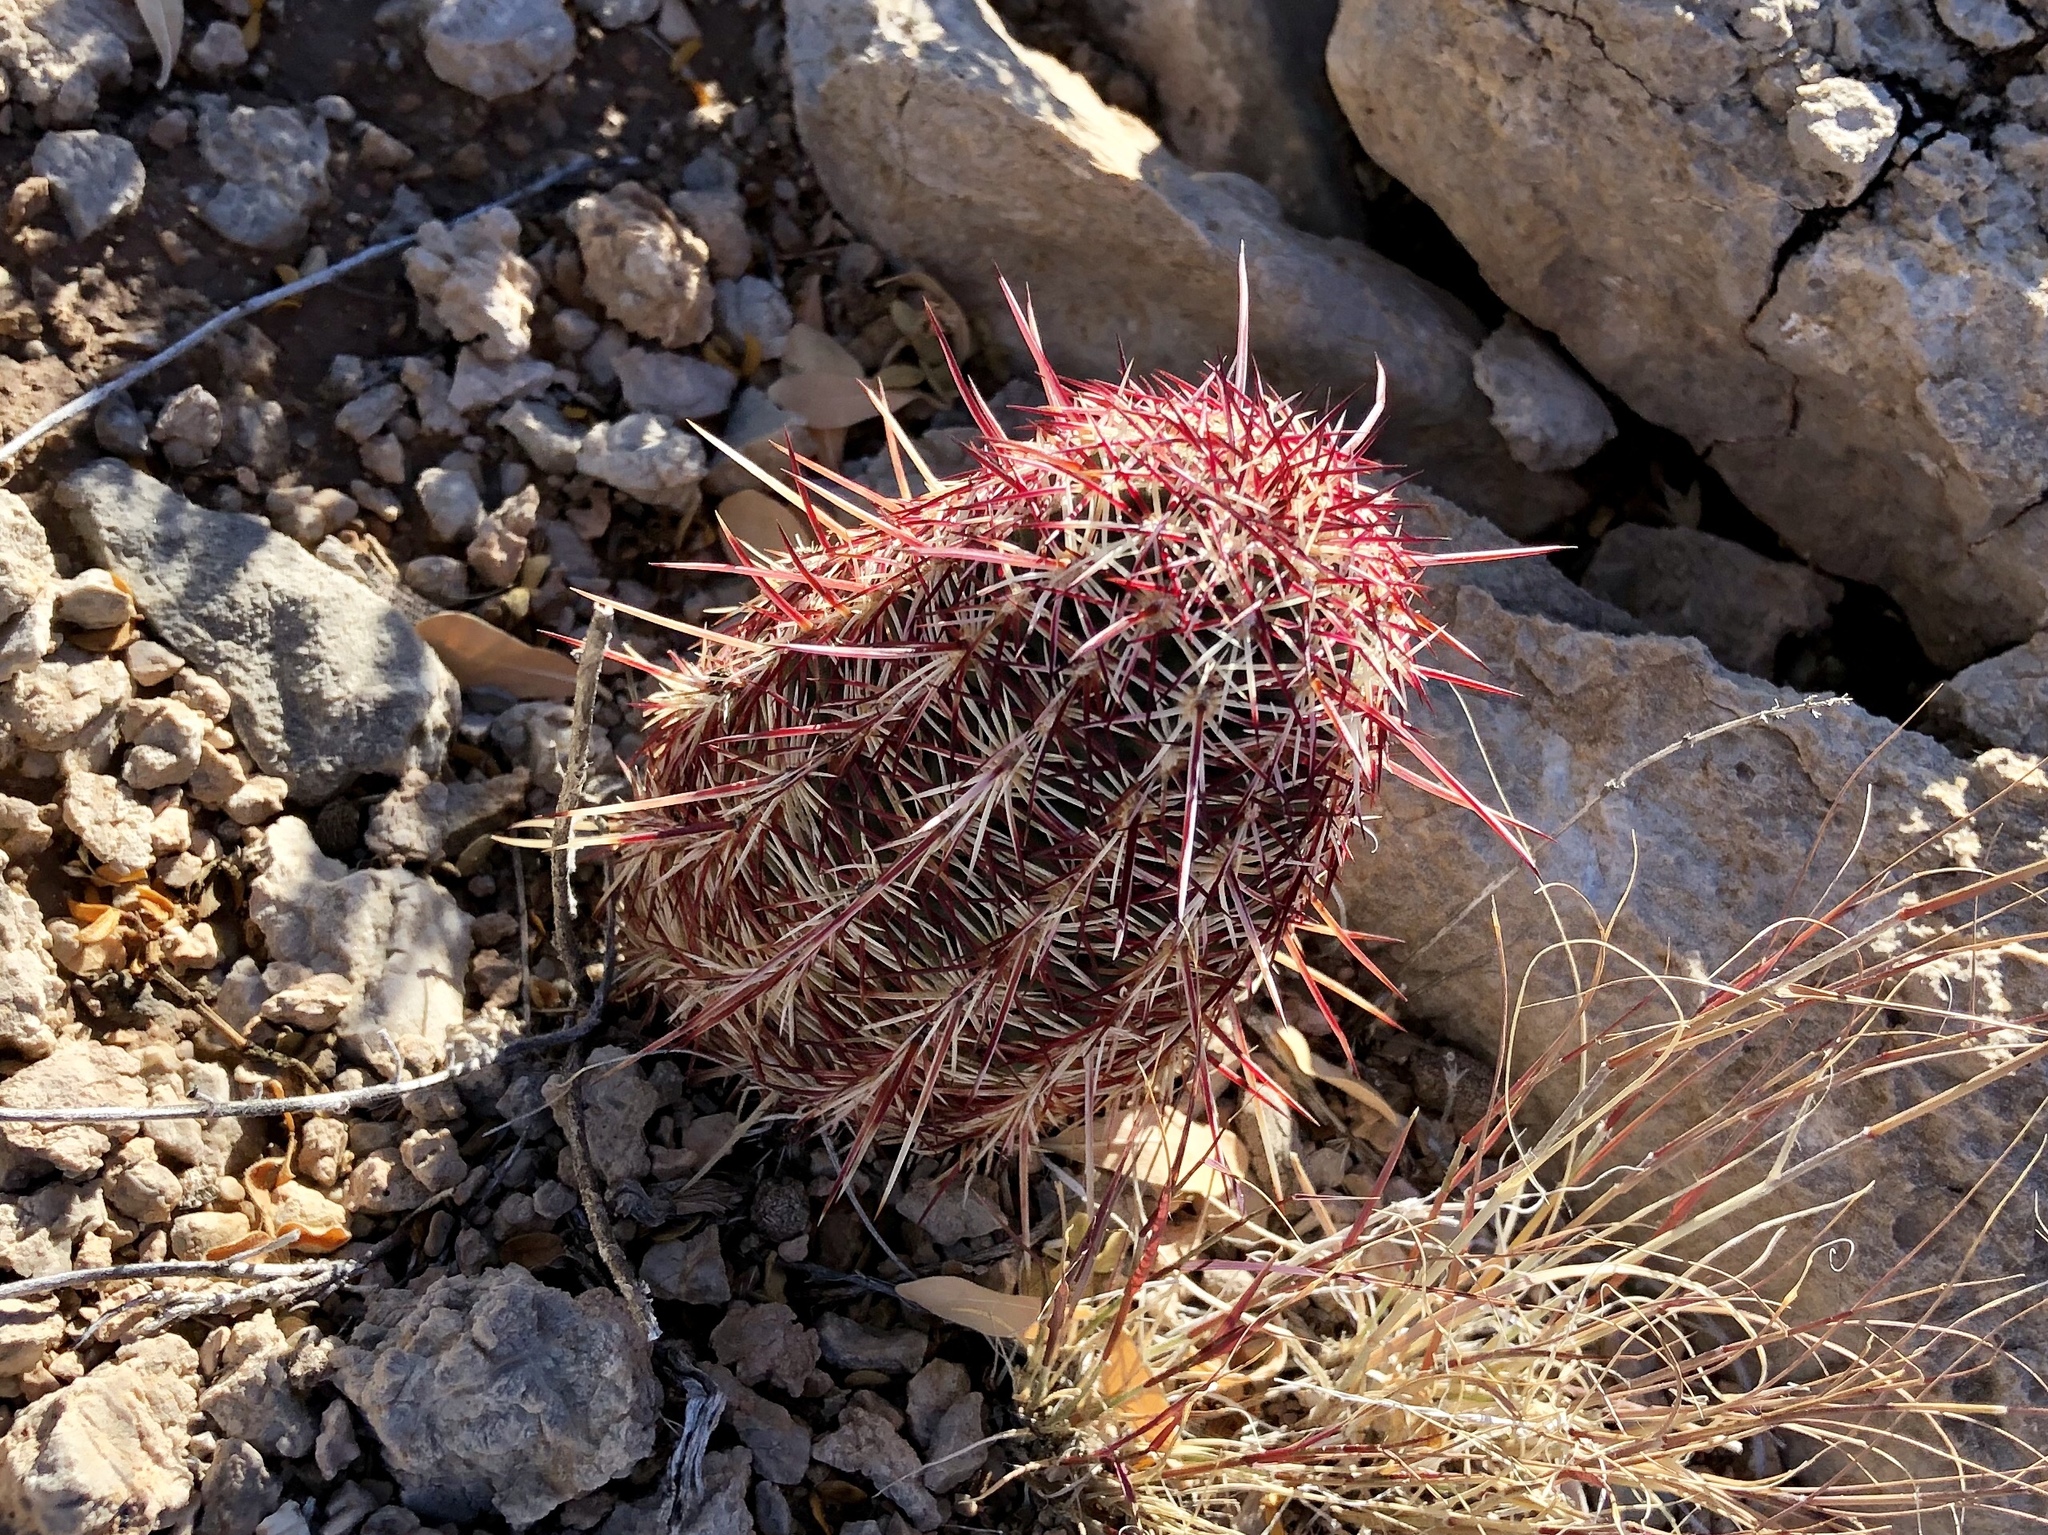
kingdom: Plantae
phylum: Tracheophyta
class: Magnoliopsida
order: Caryophyllales
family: Cactaceae
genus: Echinocereus
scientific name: Echinocereus viridiflorus
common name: Nylon hedgehog cactus
